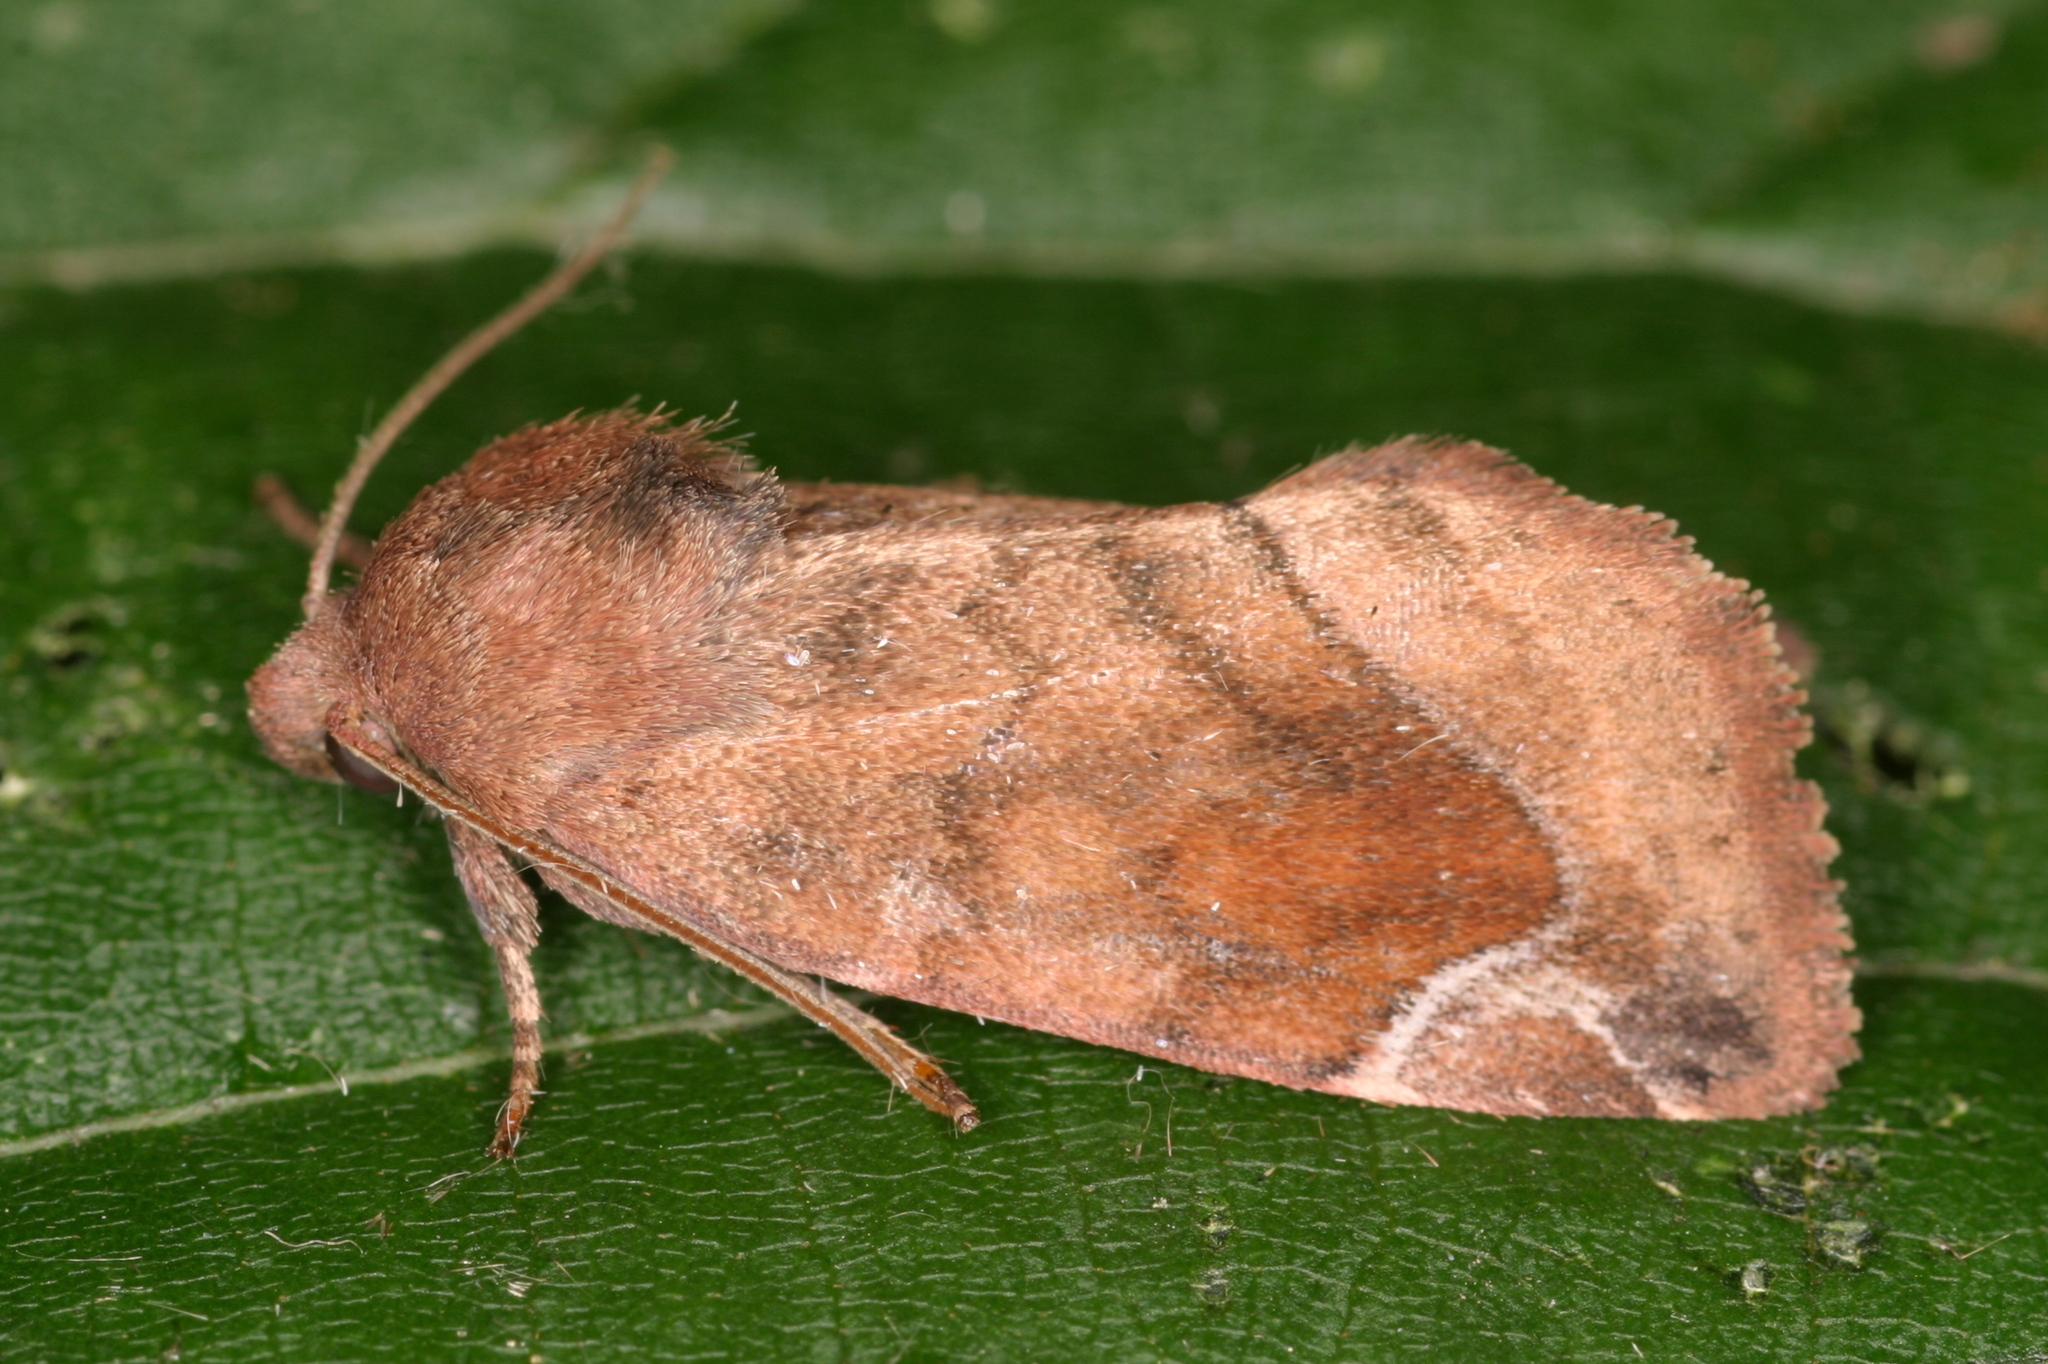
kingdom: Animalia
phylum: Arthropoda
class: Insecta
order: Lepidoptera
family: Noctuidae
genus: Cosmia
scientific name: Cosmia pyralina
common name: Lunar-spotted pinion
